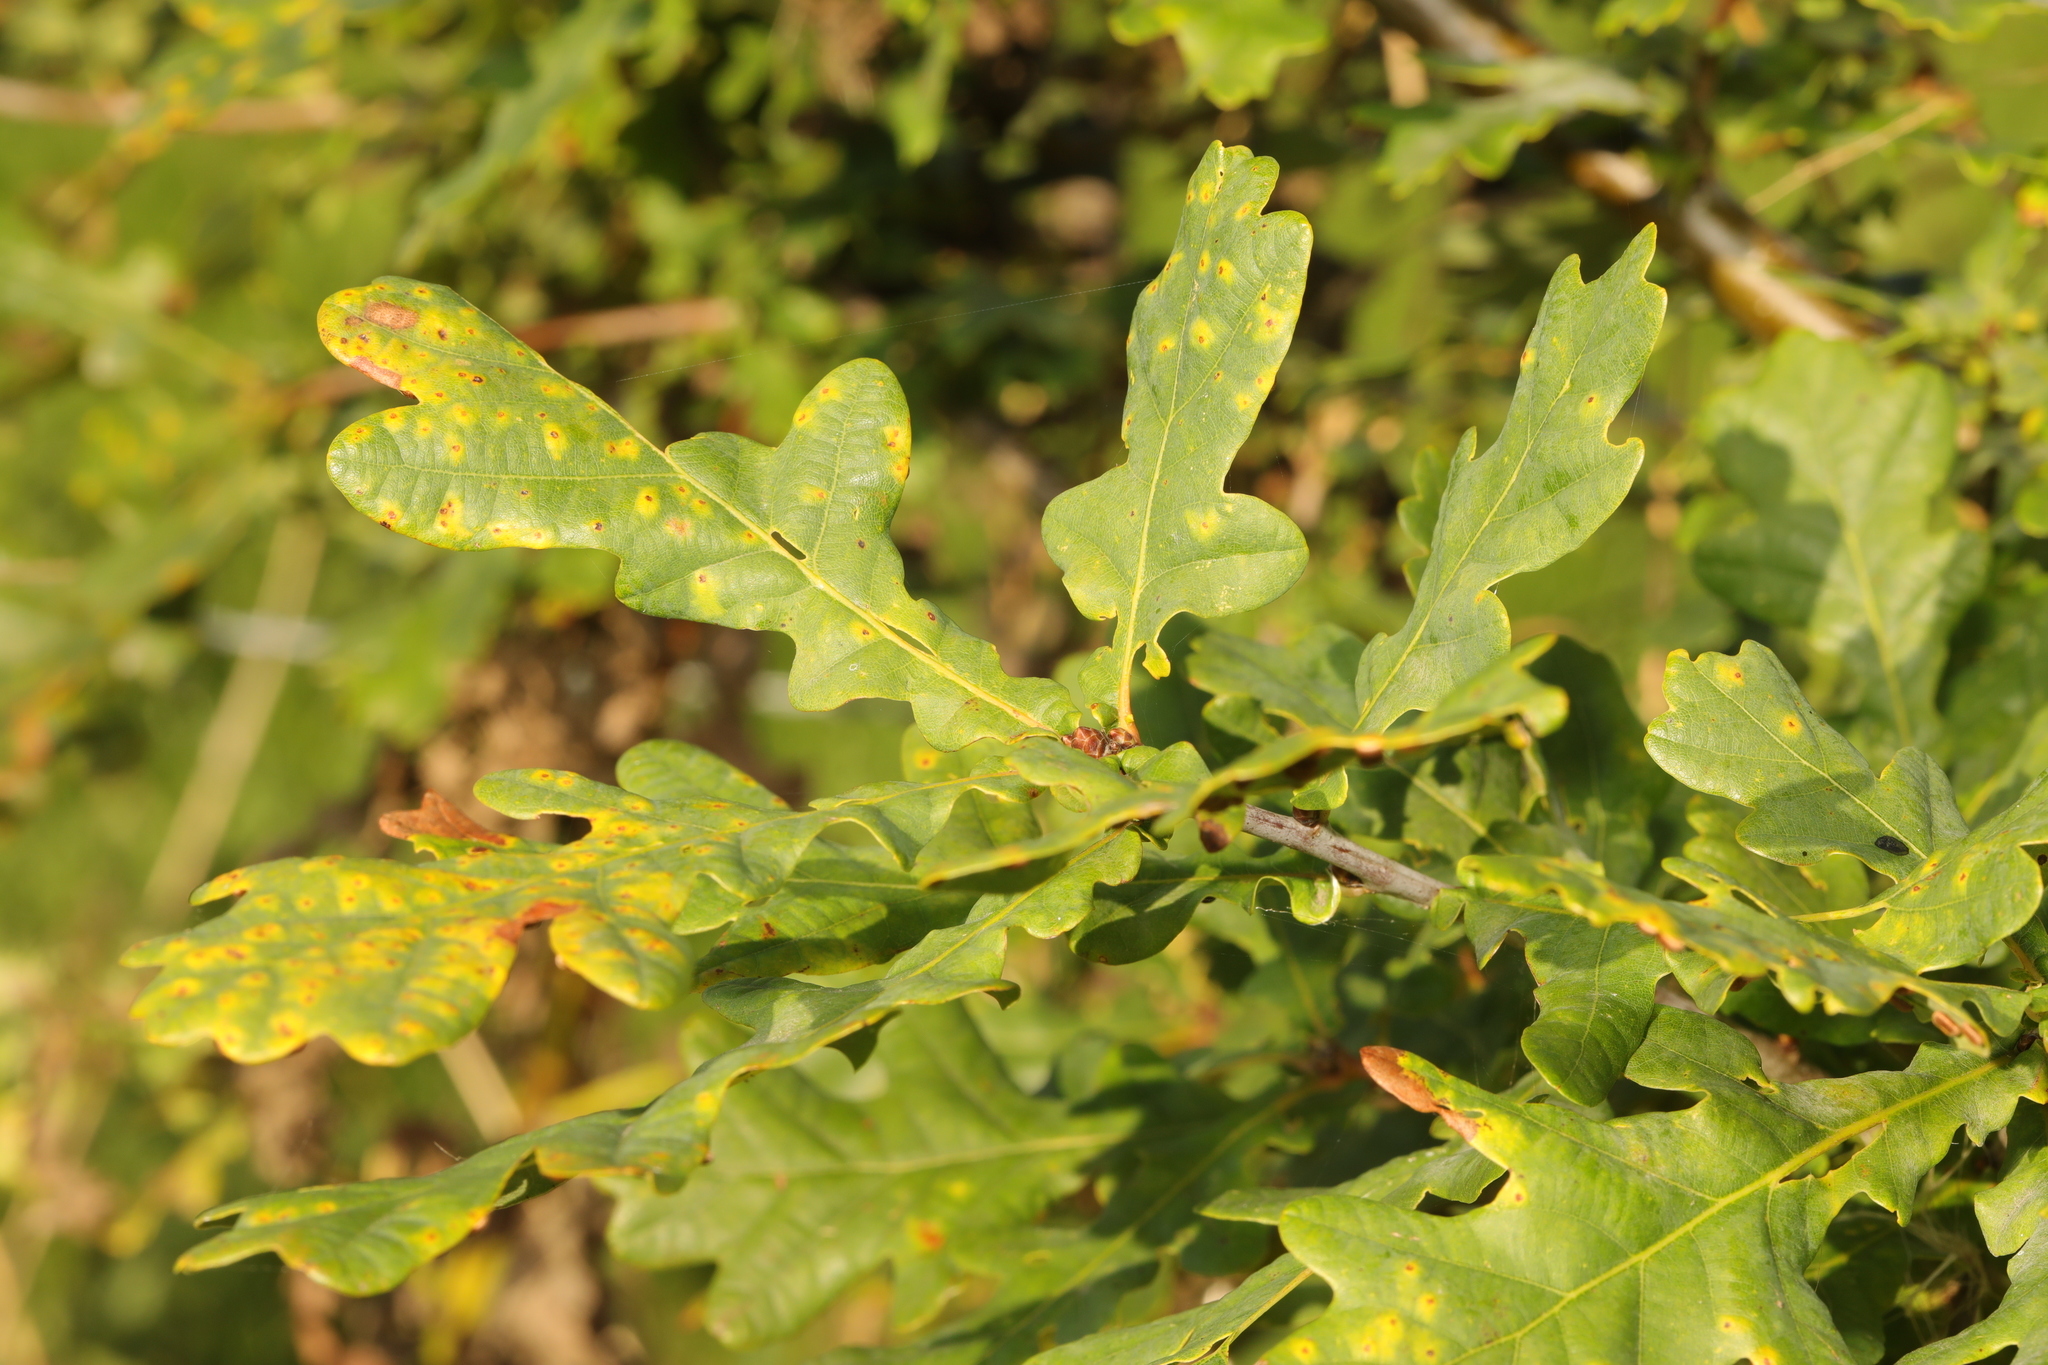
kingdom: Plantae
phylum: Tracheophyta
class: Magnoliopsida
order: Fagales
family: Fagaceae
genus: Quercus
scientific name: Quercus robur
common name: Pedunculate oak
